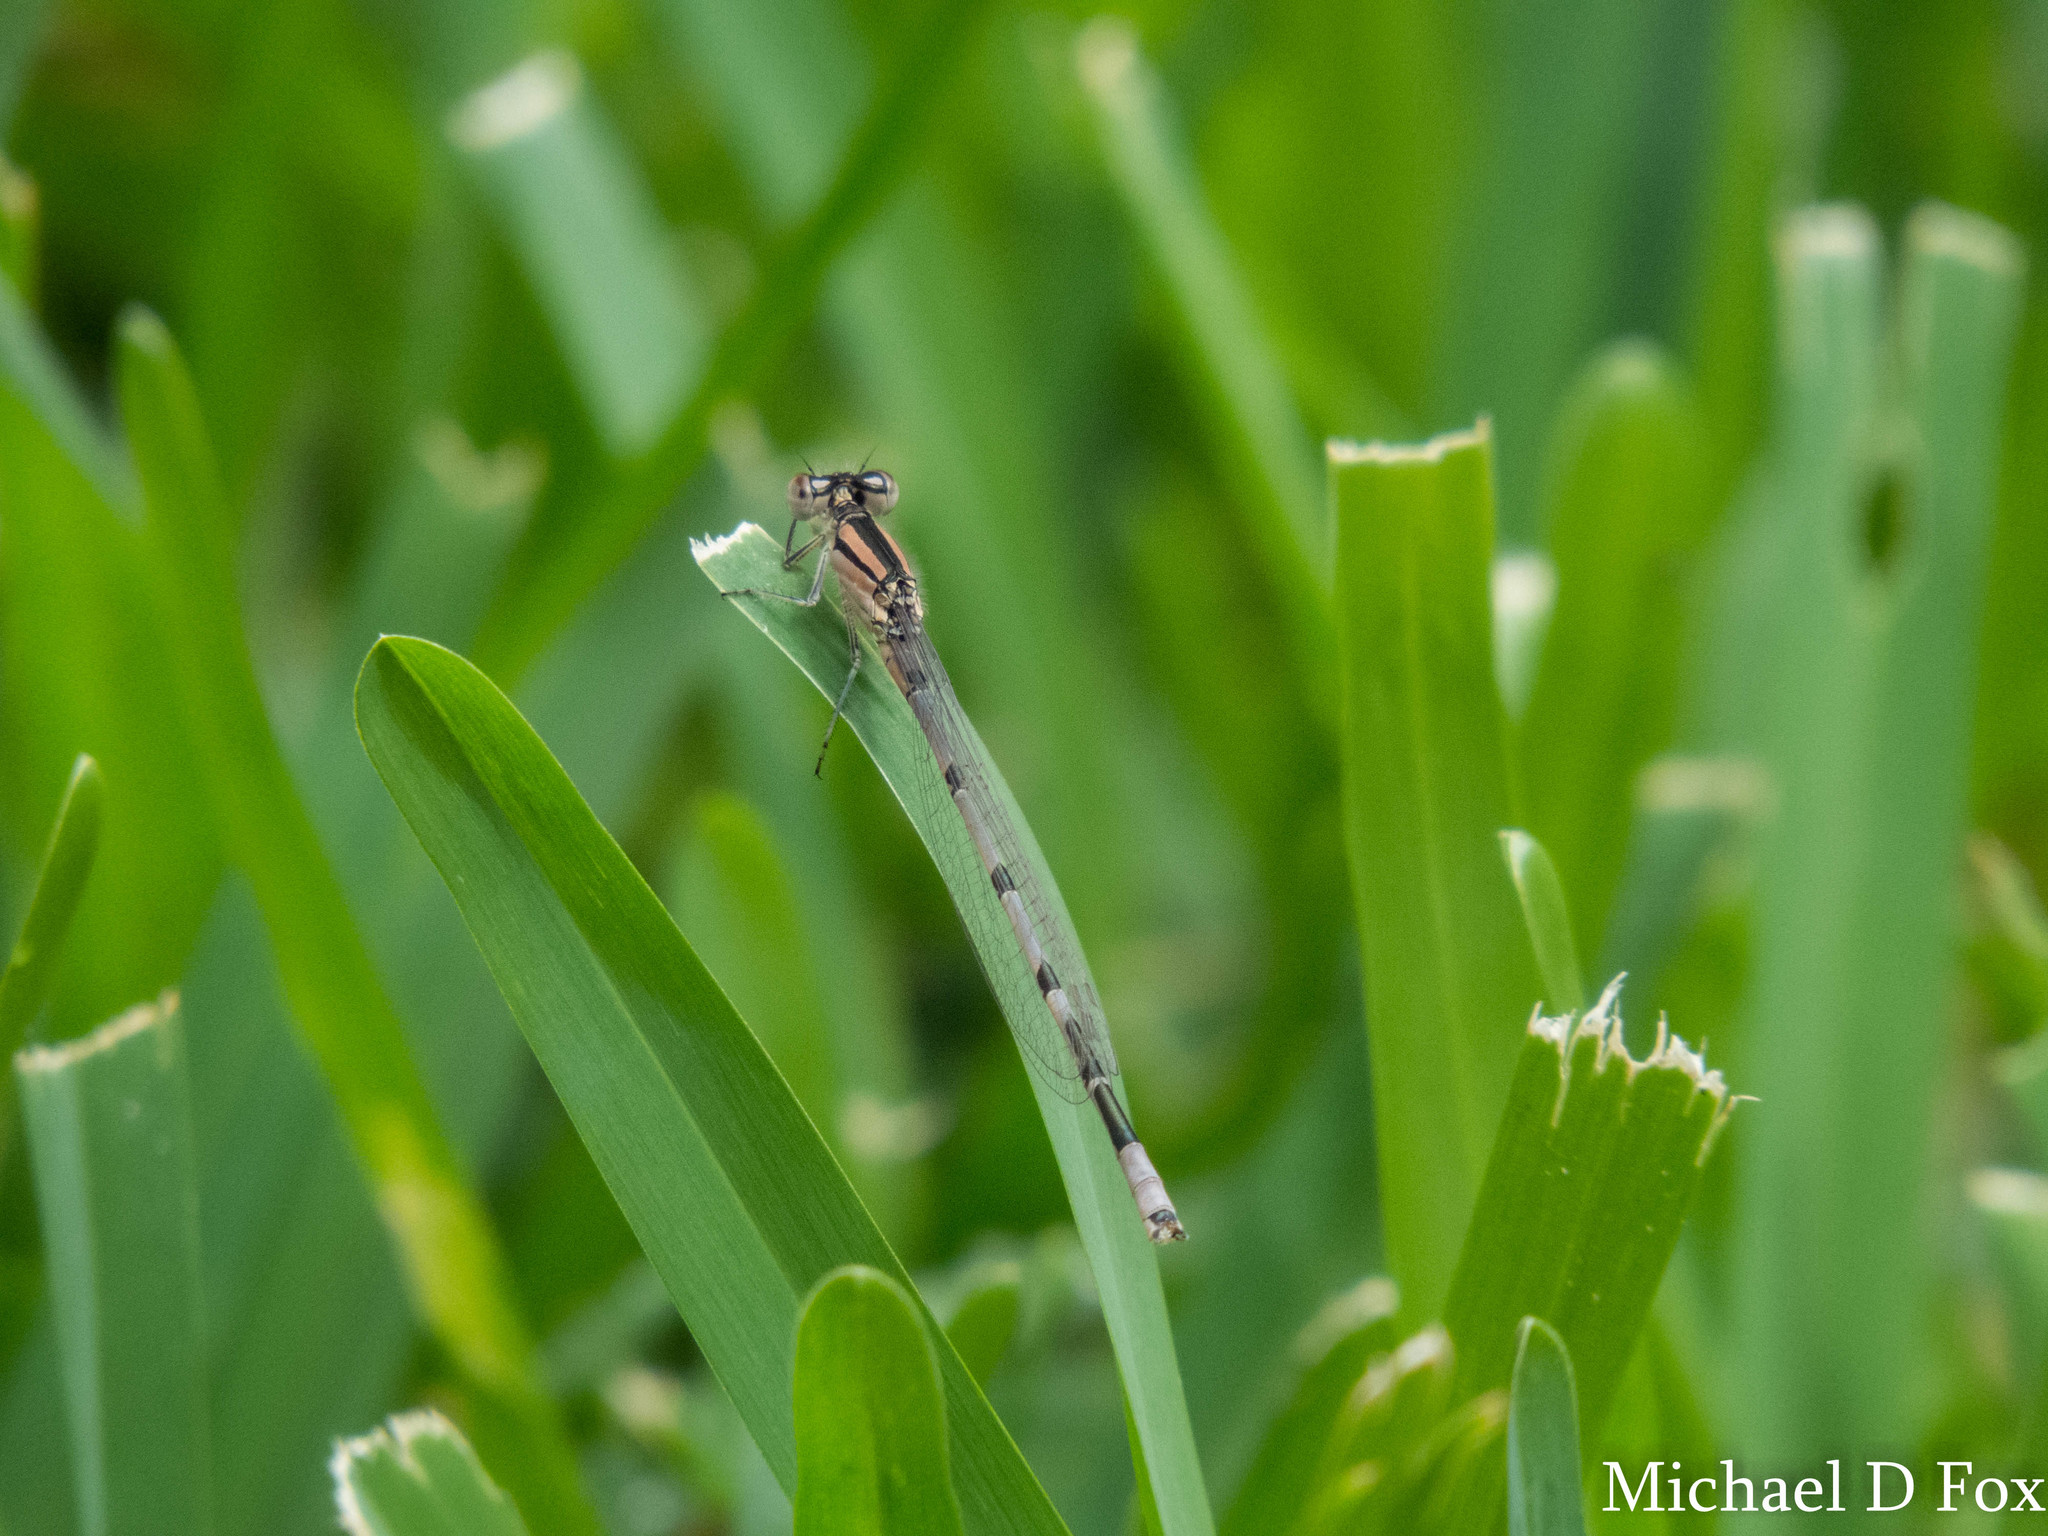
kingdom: Animalia
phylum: Arthropoda
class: Insecta
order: Odonata
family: Coenagrionidae
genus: Enallagma
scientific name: Enallagma civile
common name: Damselfly
